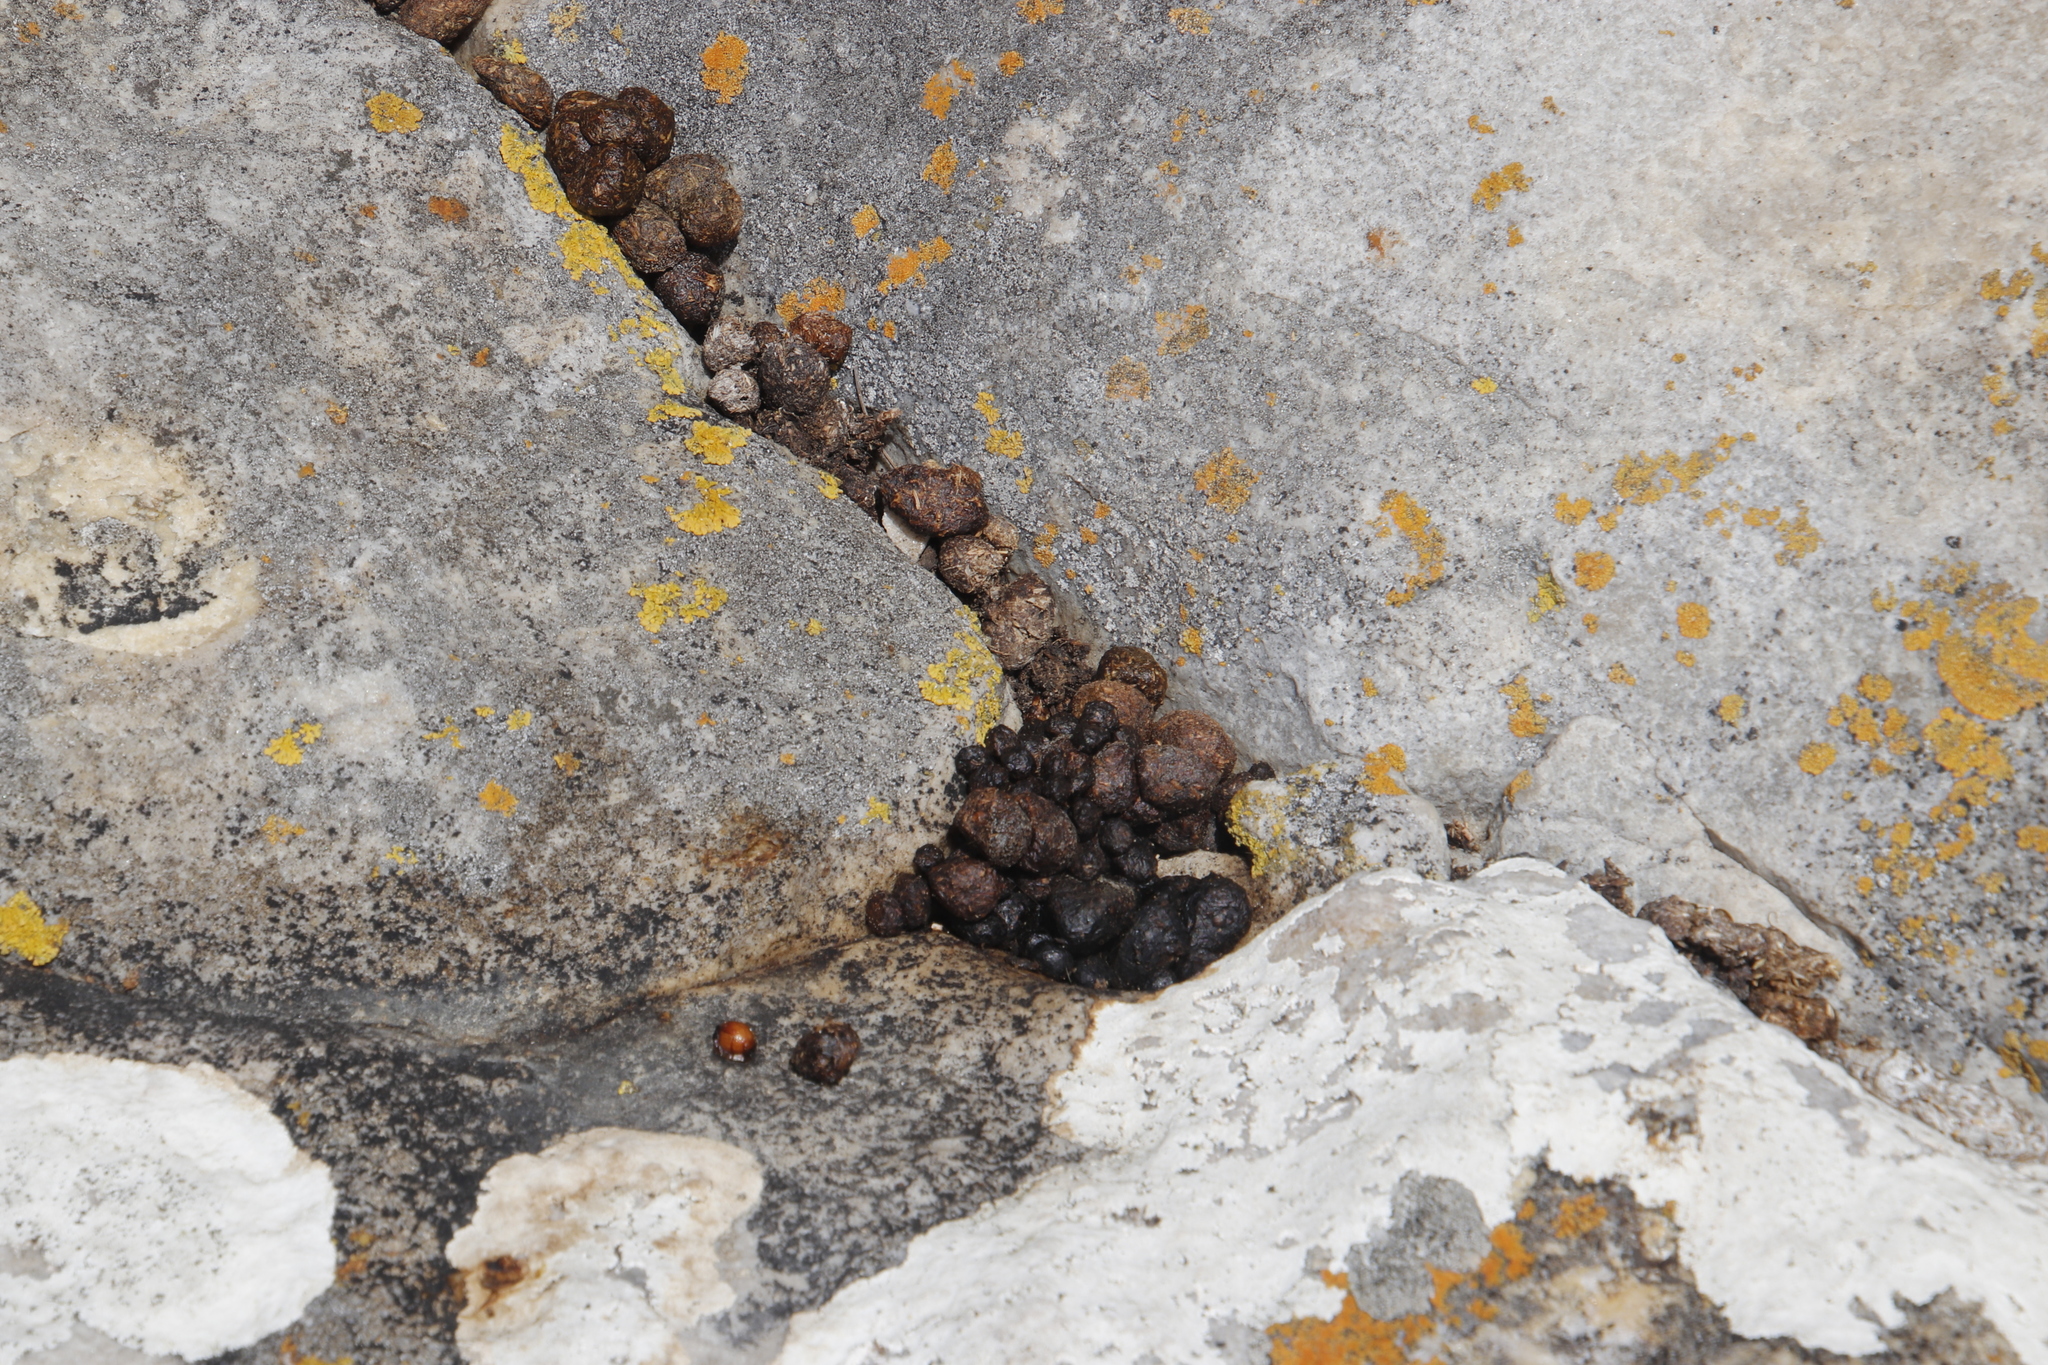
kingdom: Animalia
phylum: Chordata
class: Mammalia
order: Hyracoidea
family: Procaviidae
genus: Procavia
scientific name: Procavia capensis
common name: Rock hyrax
